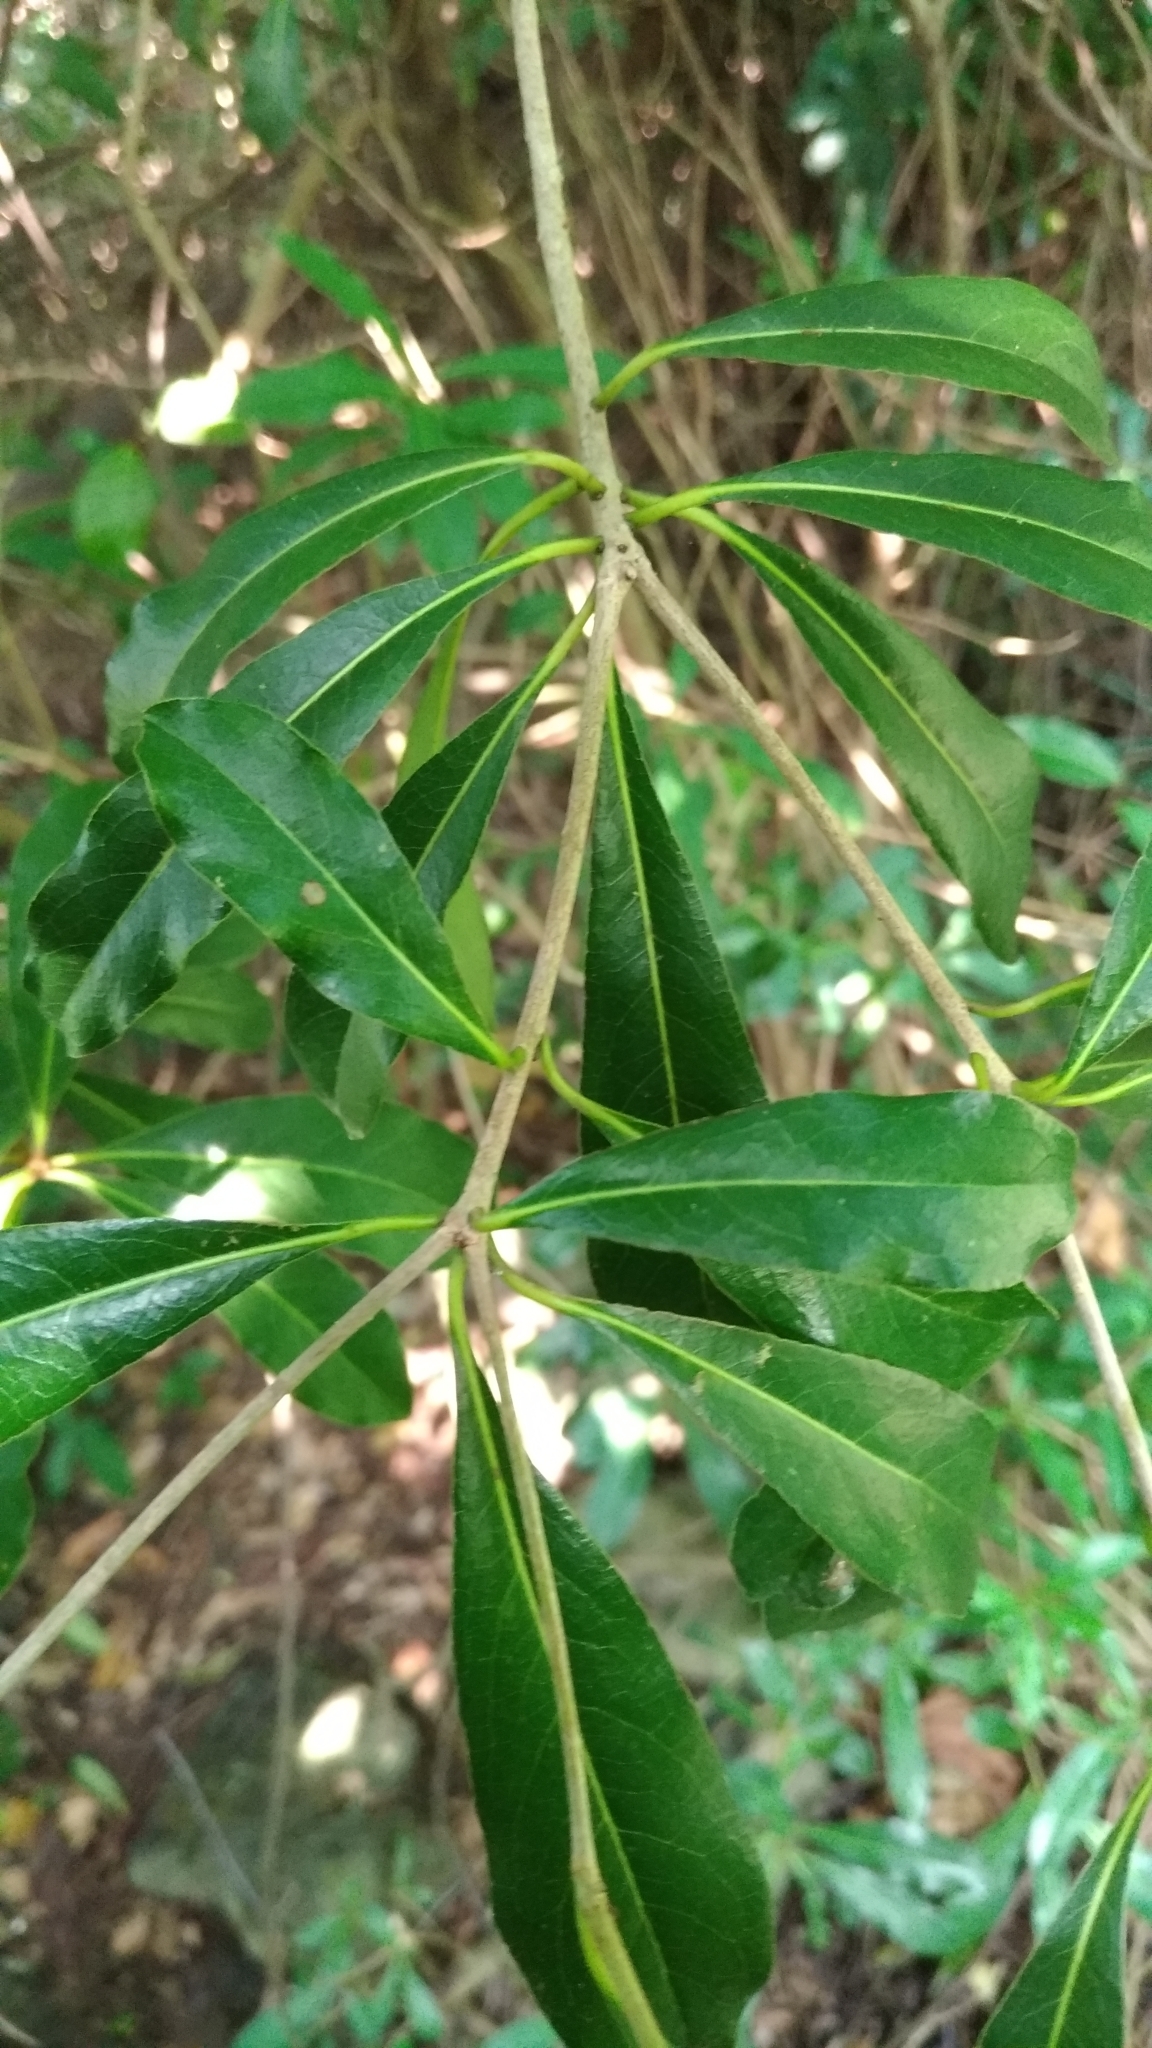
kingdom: Plantae
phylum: Tracheophyta
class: Magnoliopsida
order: Apiales
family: Pittosporaceae
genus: Pittosporum
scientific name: Pittosporum pentandrum
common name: Taiwanese cheesewood
